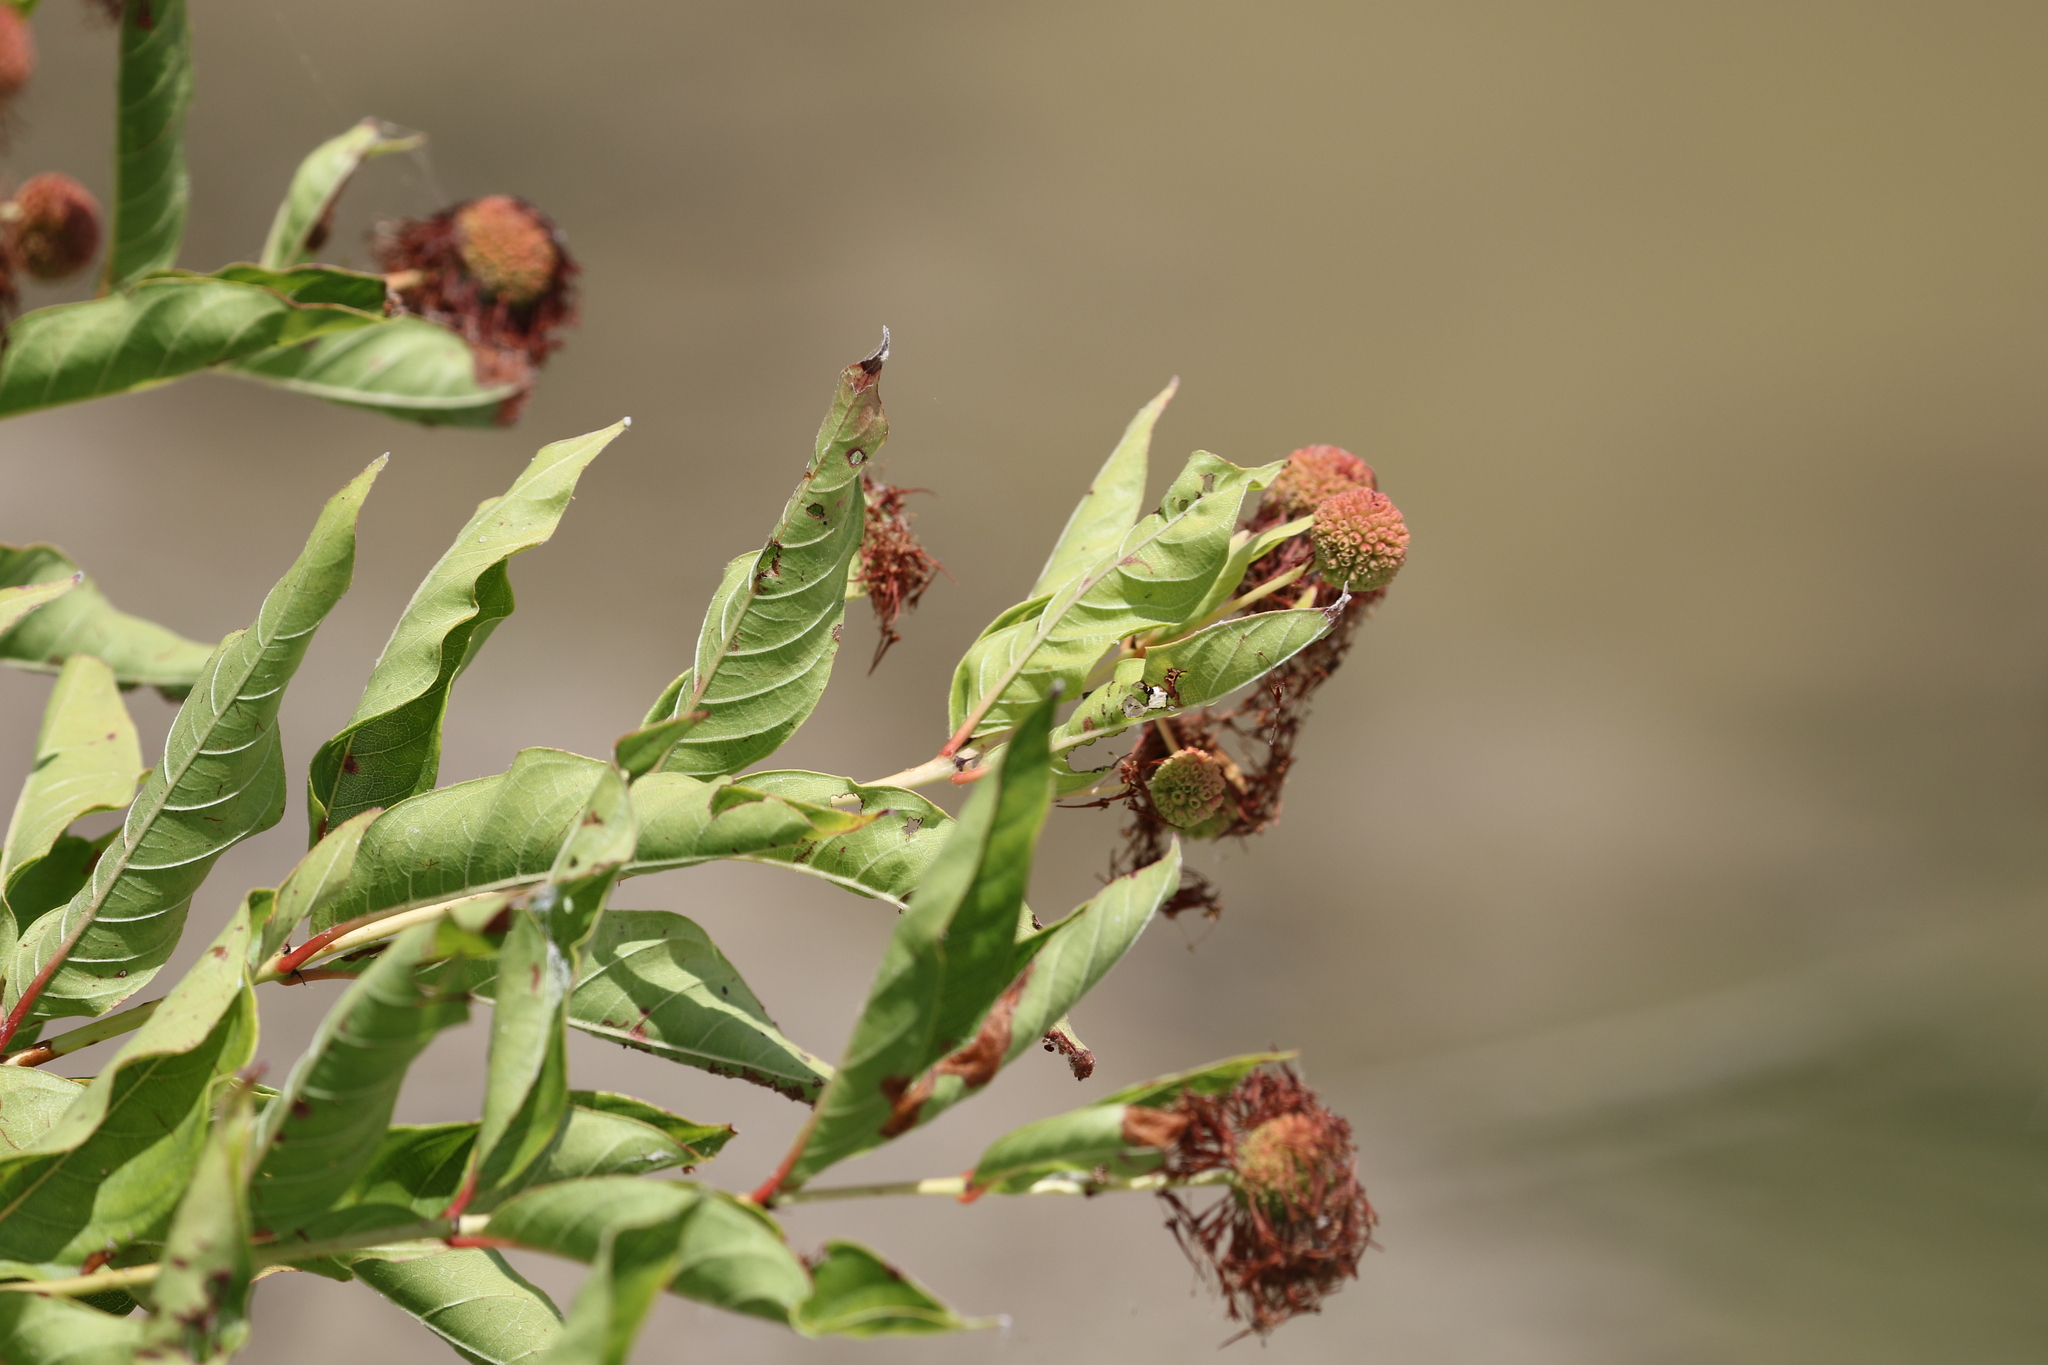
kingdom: Plantae
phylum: Tracheophyta
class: Magnoliopsida
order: Gentianales
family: Rubiaceae
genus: Cephalanthus
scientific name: Cephalanthus occidentalis
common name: Button-willow
